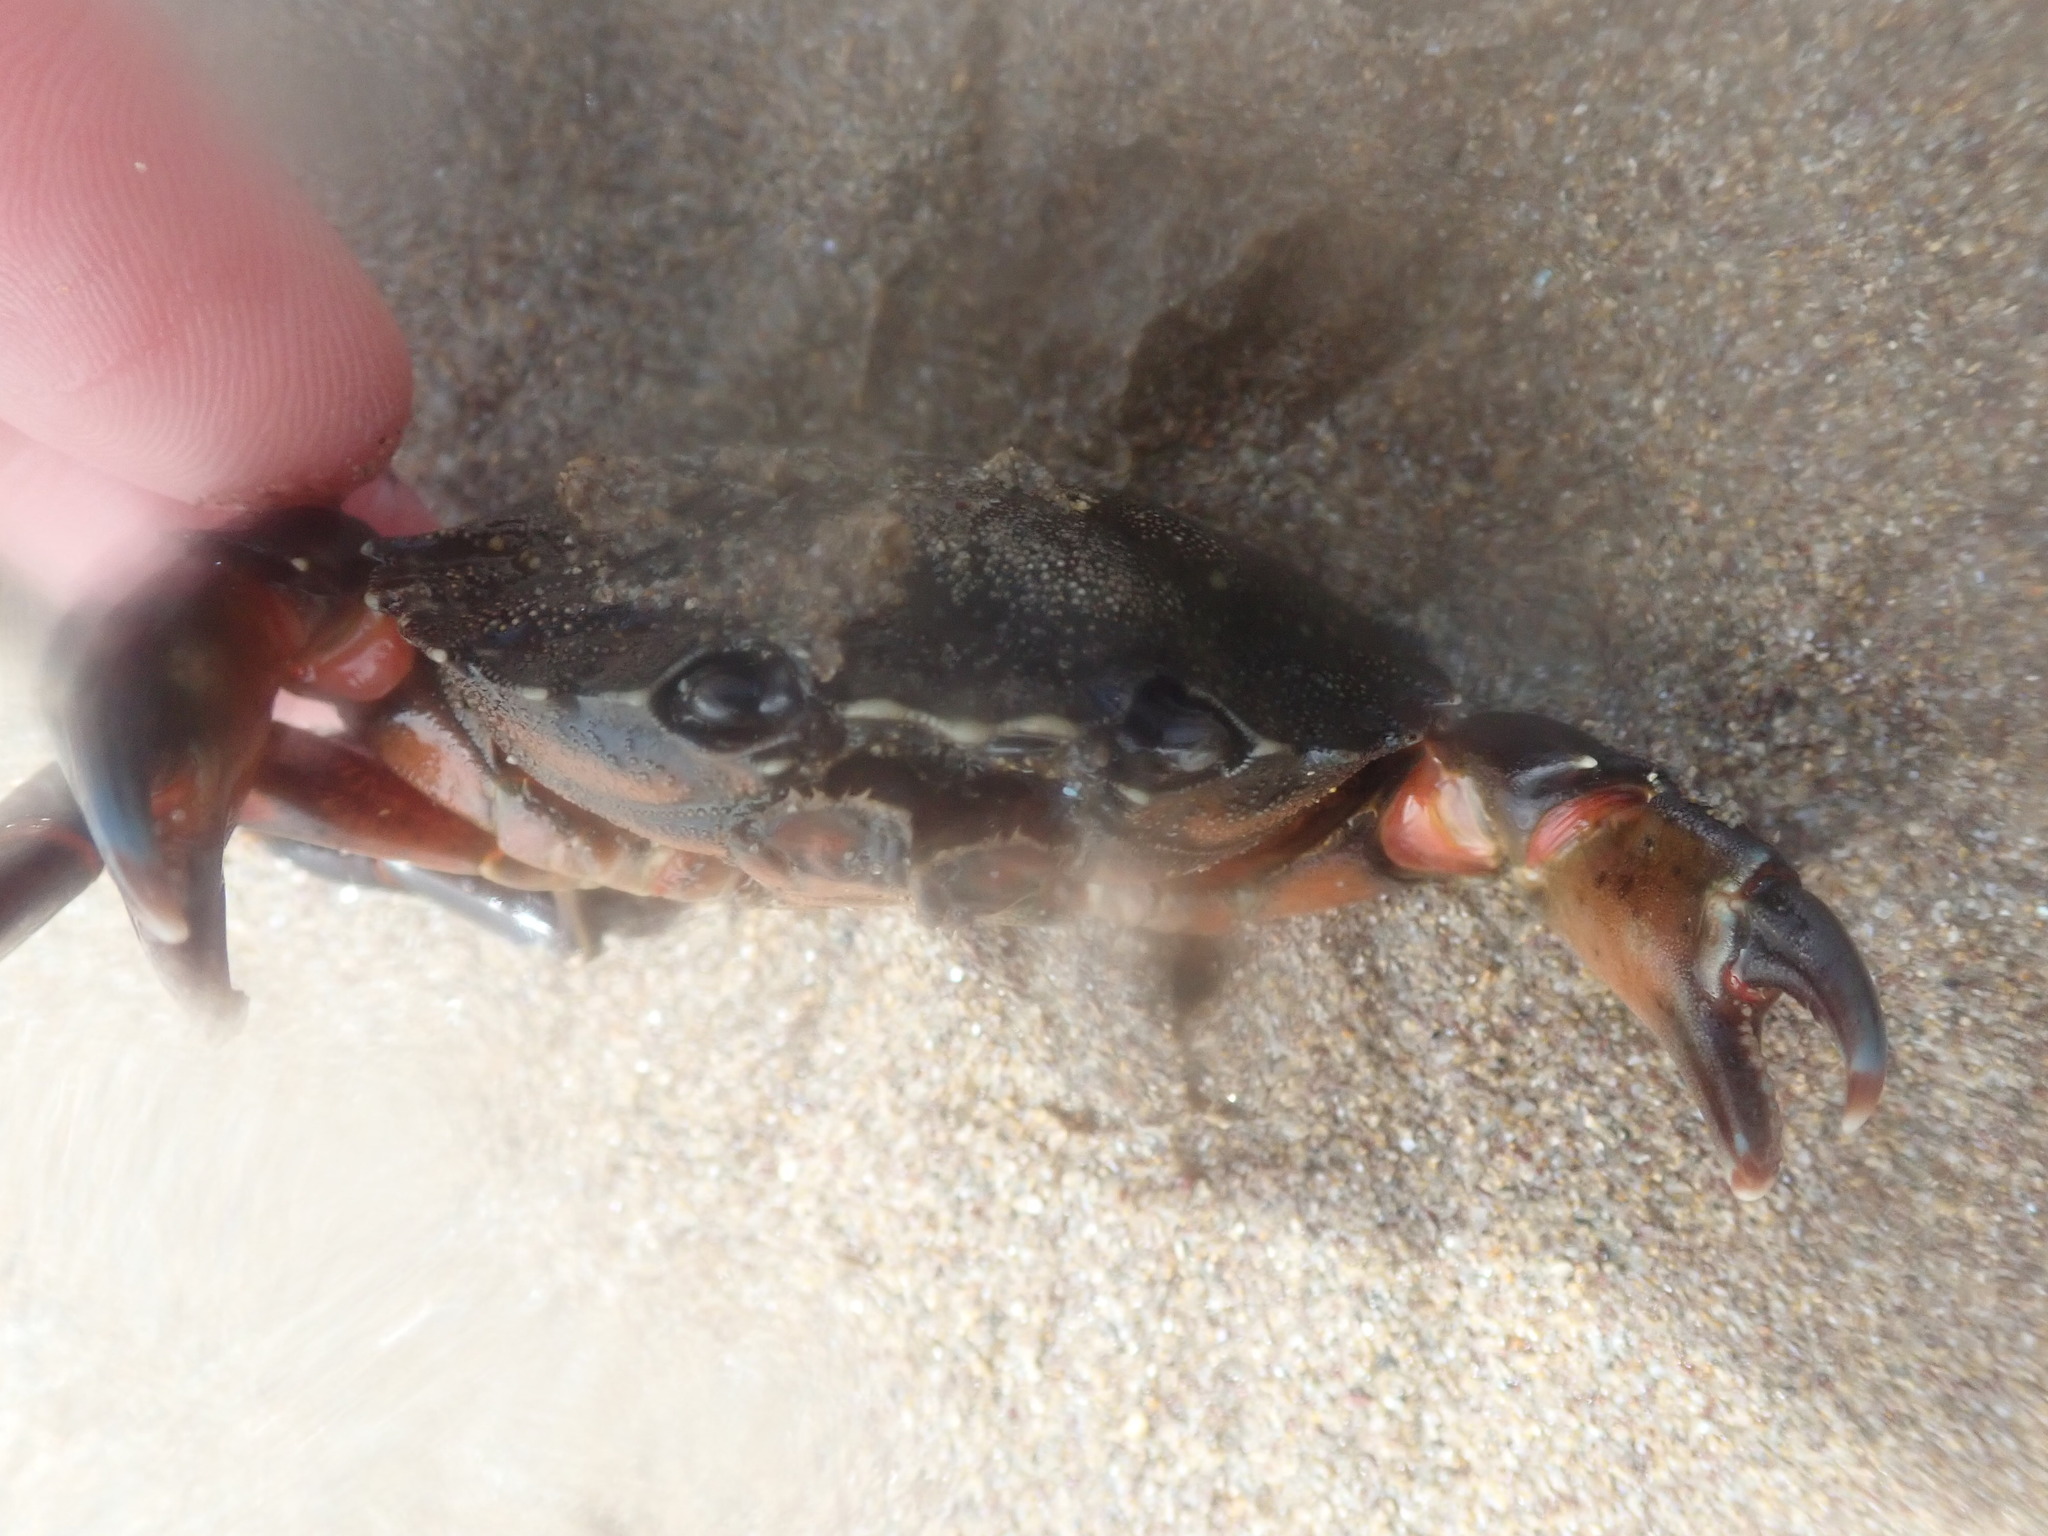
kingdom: Animalia
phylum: Arthropoda
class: Malacostraca
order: Decapoda
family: Carcinidae
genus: Carcinus
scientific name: Carcinus maenas
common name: European green crab
